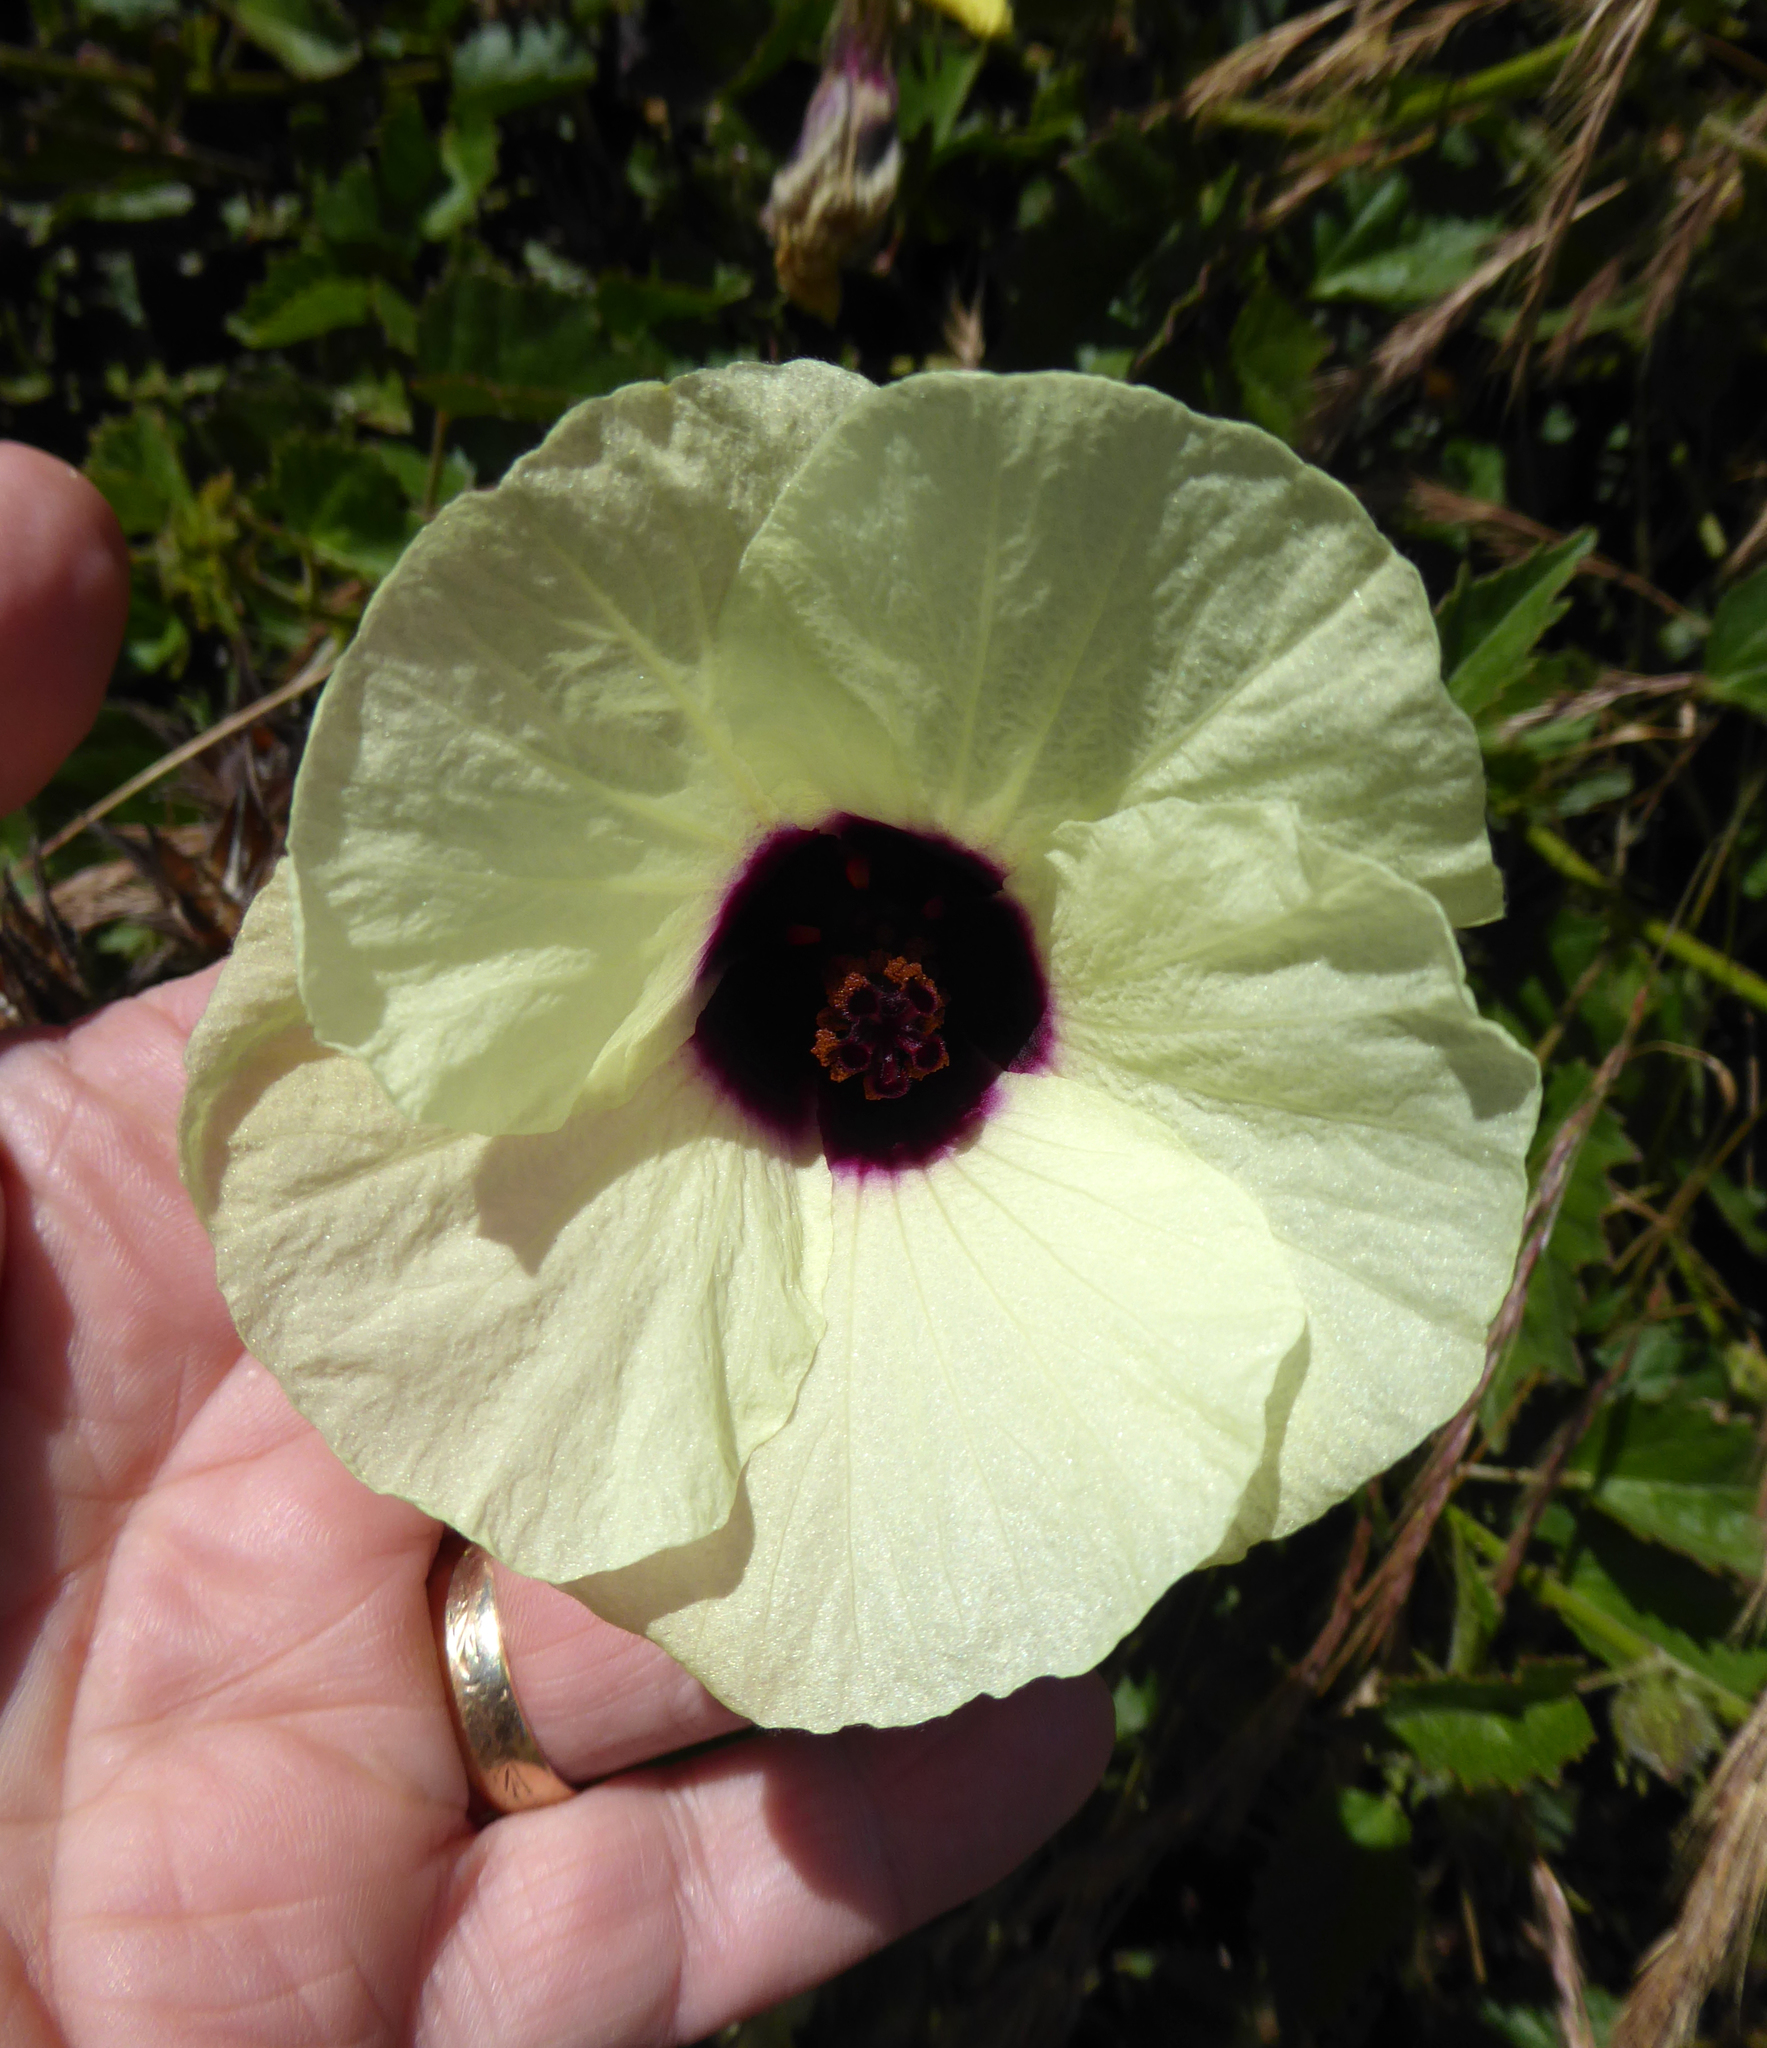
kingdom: Plantae
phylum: Tracheophyta
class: Magnoliopsida
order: Malvales
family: Malvaceae
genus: Hibiscus
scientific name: Hibiscus diversifolius
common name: Cape hibiscus
